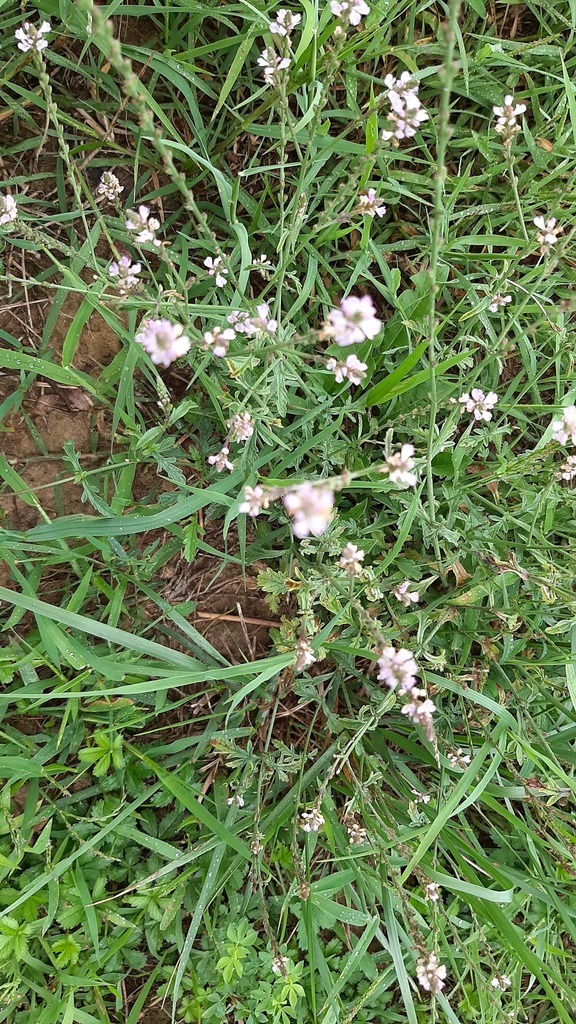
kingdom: Plantae
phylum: Tracheophyta
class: Magnoliopsida
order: Lamiales
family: Verbenaceae
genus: Verbena
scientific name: Verbena officinalis
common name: Vervain
